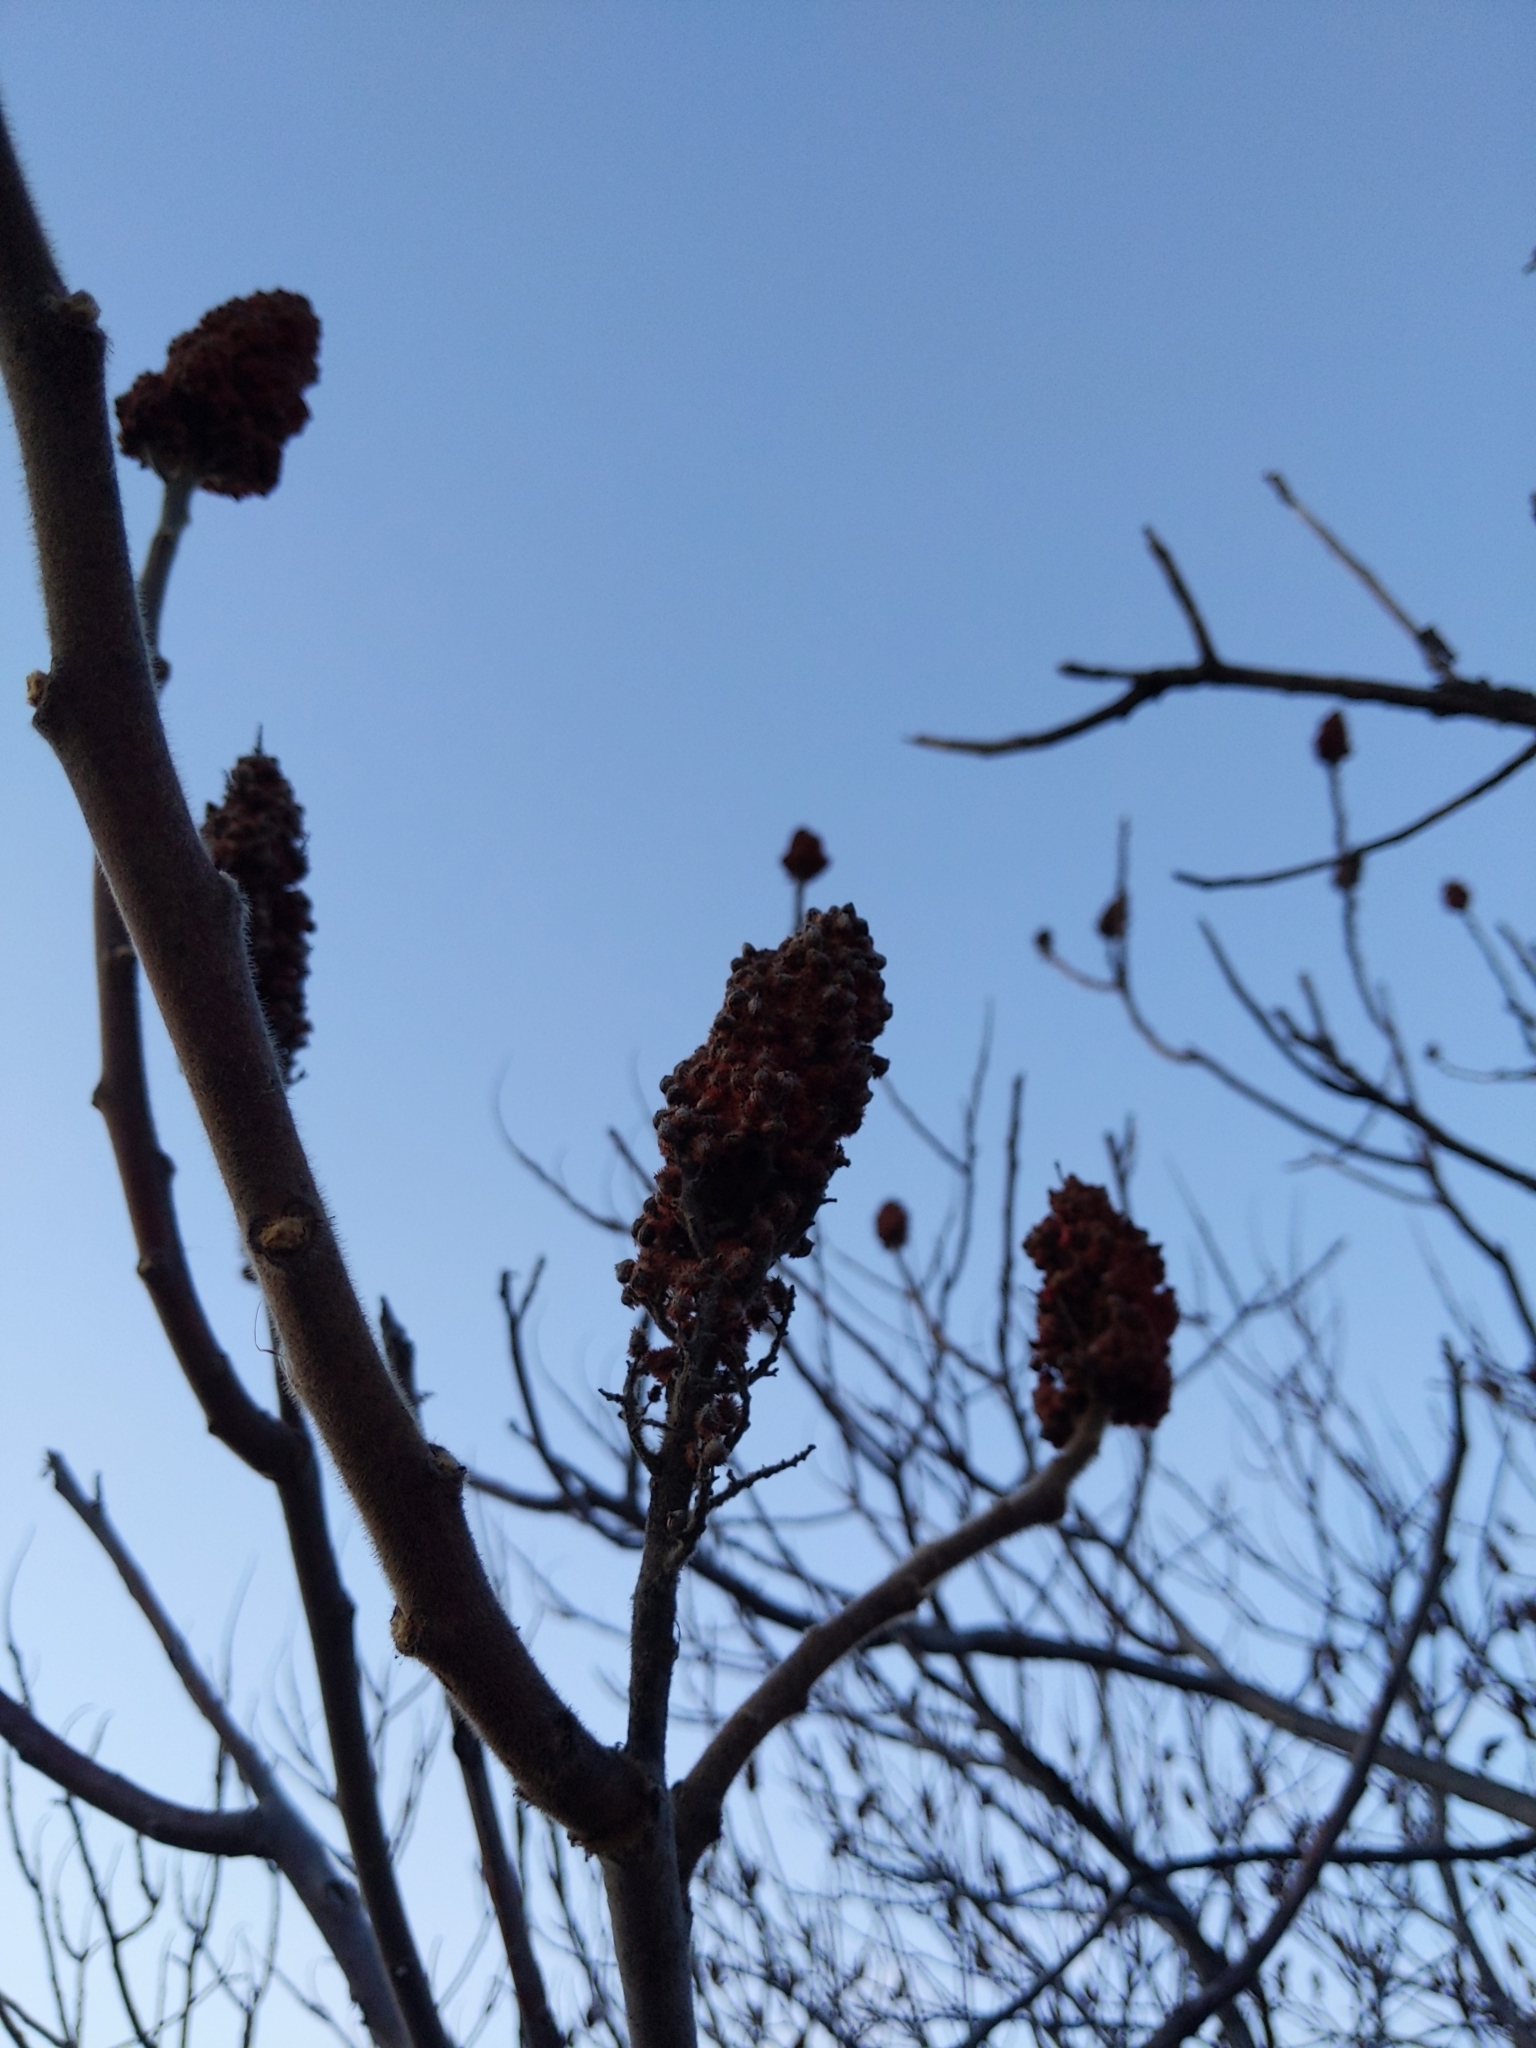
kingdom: Plantae
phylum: Tracheophyta
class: Magnoliopsida
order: Sapindales
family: Anacardiaceae
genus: Rhus
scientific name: Rhus typhina
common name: Staghorn sumac
